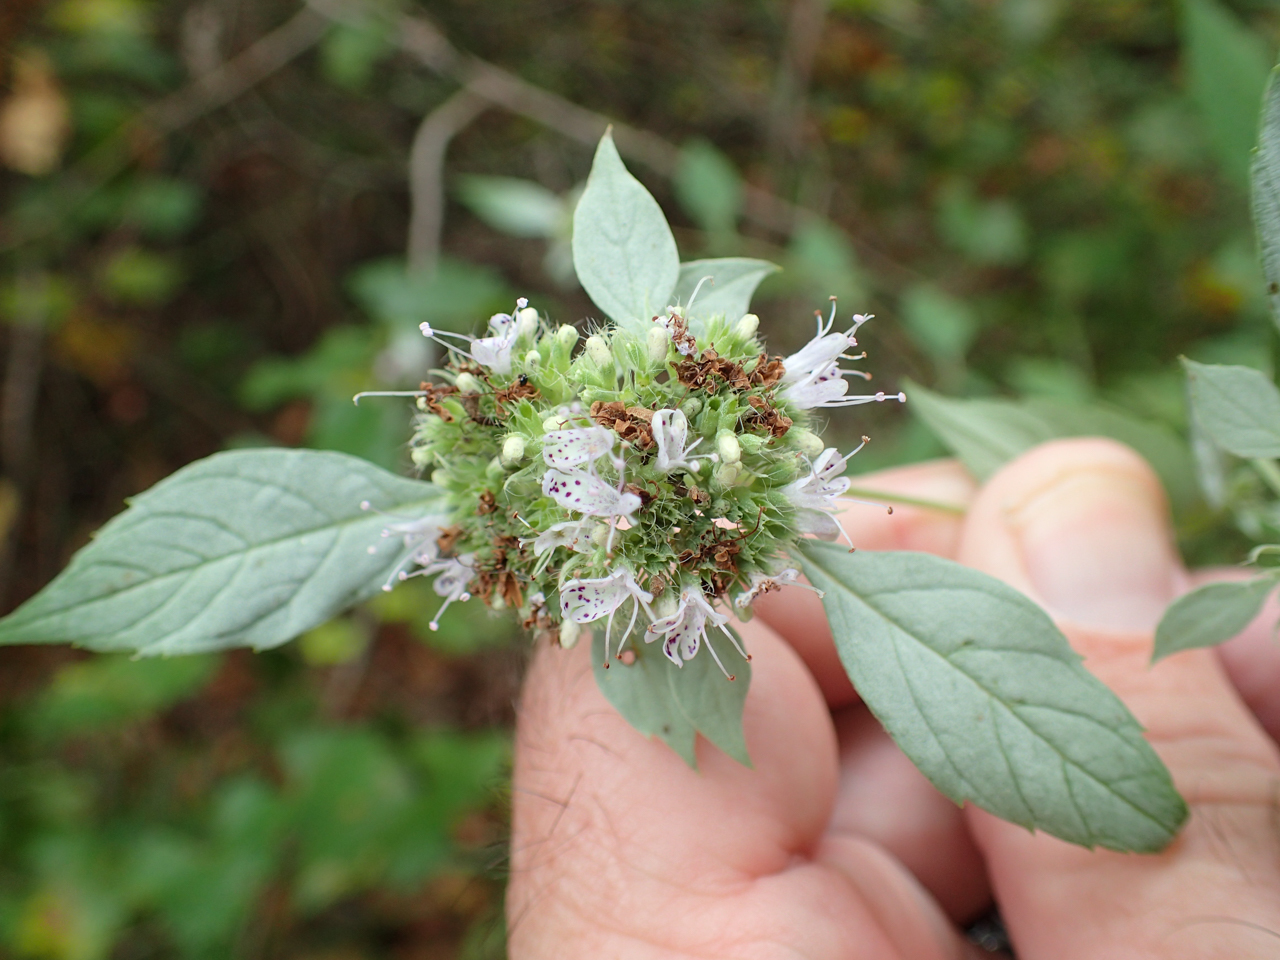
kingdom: Plantae
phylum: Tracheophyta
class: Magnoliopsida
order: Lamiales
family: Lamiaceae
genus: Pycnanthemum
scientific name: Pycnanthemum albescens
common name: White-leaf mountain-mint
